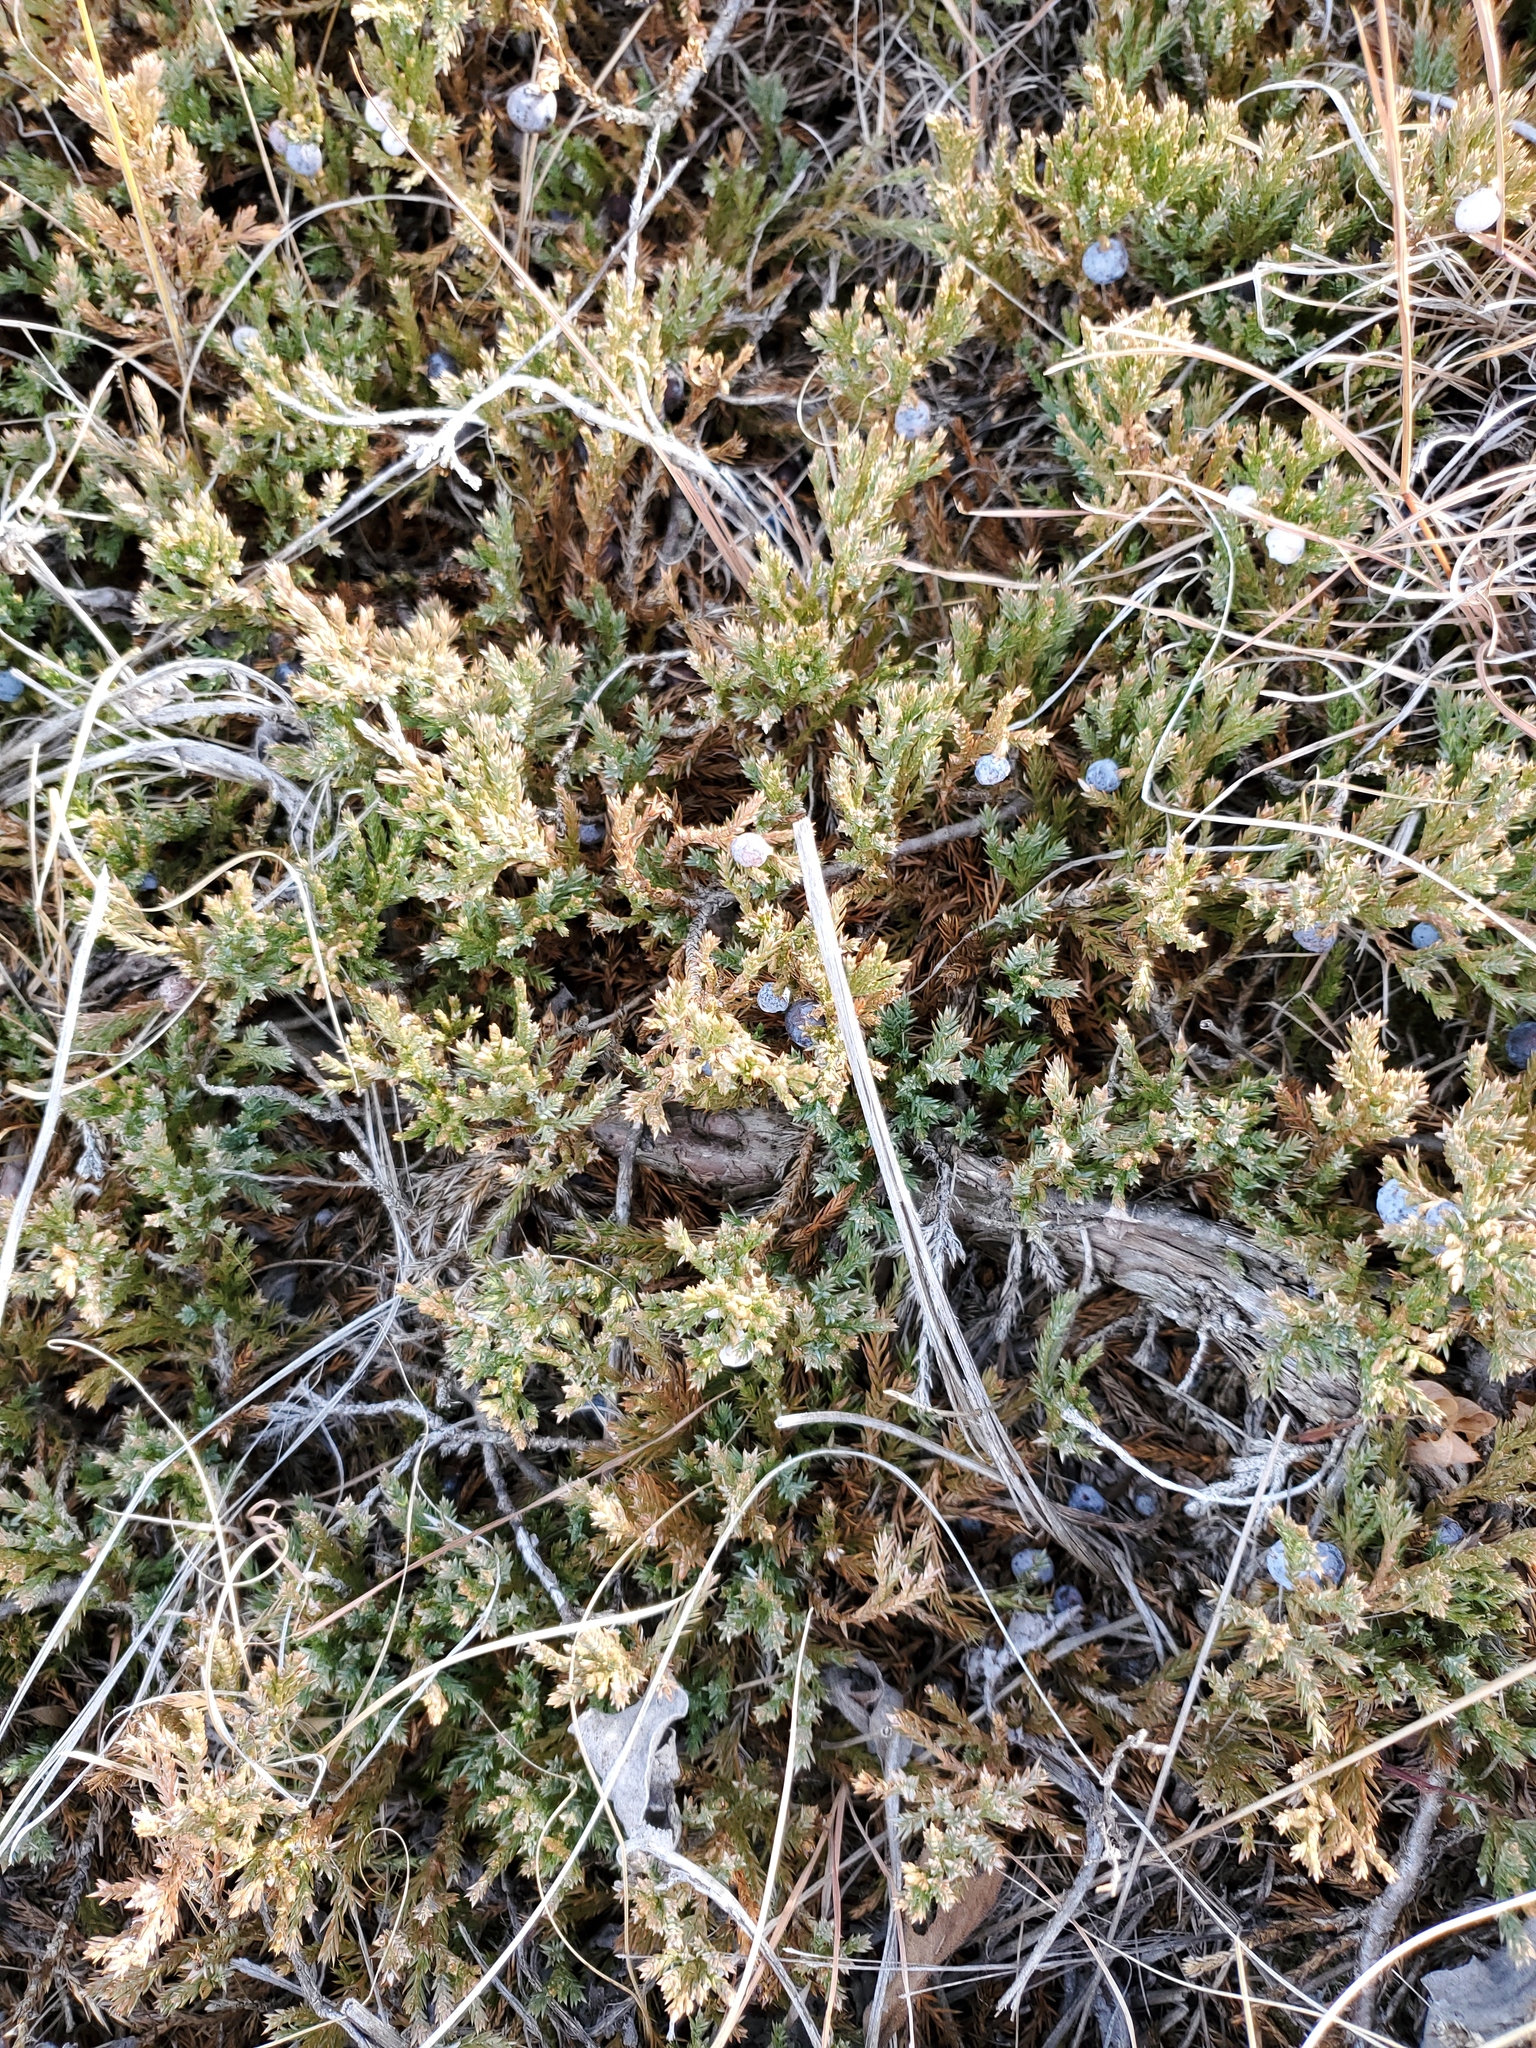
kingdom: Plantae
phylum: Tracheophyta
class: Pinopsida
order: Pinales
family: Cupressaceae
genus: Juniperus
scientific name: Juniperus horizontalis
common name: Creeping juniper
